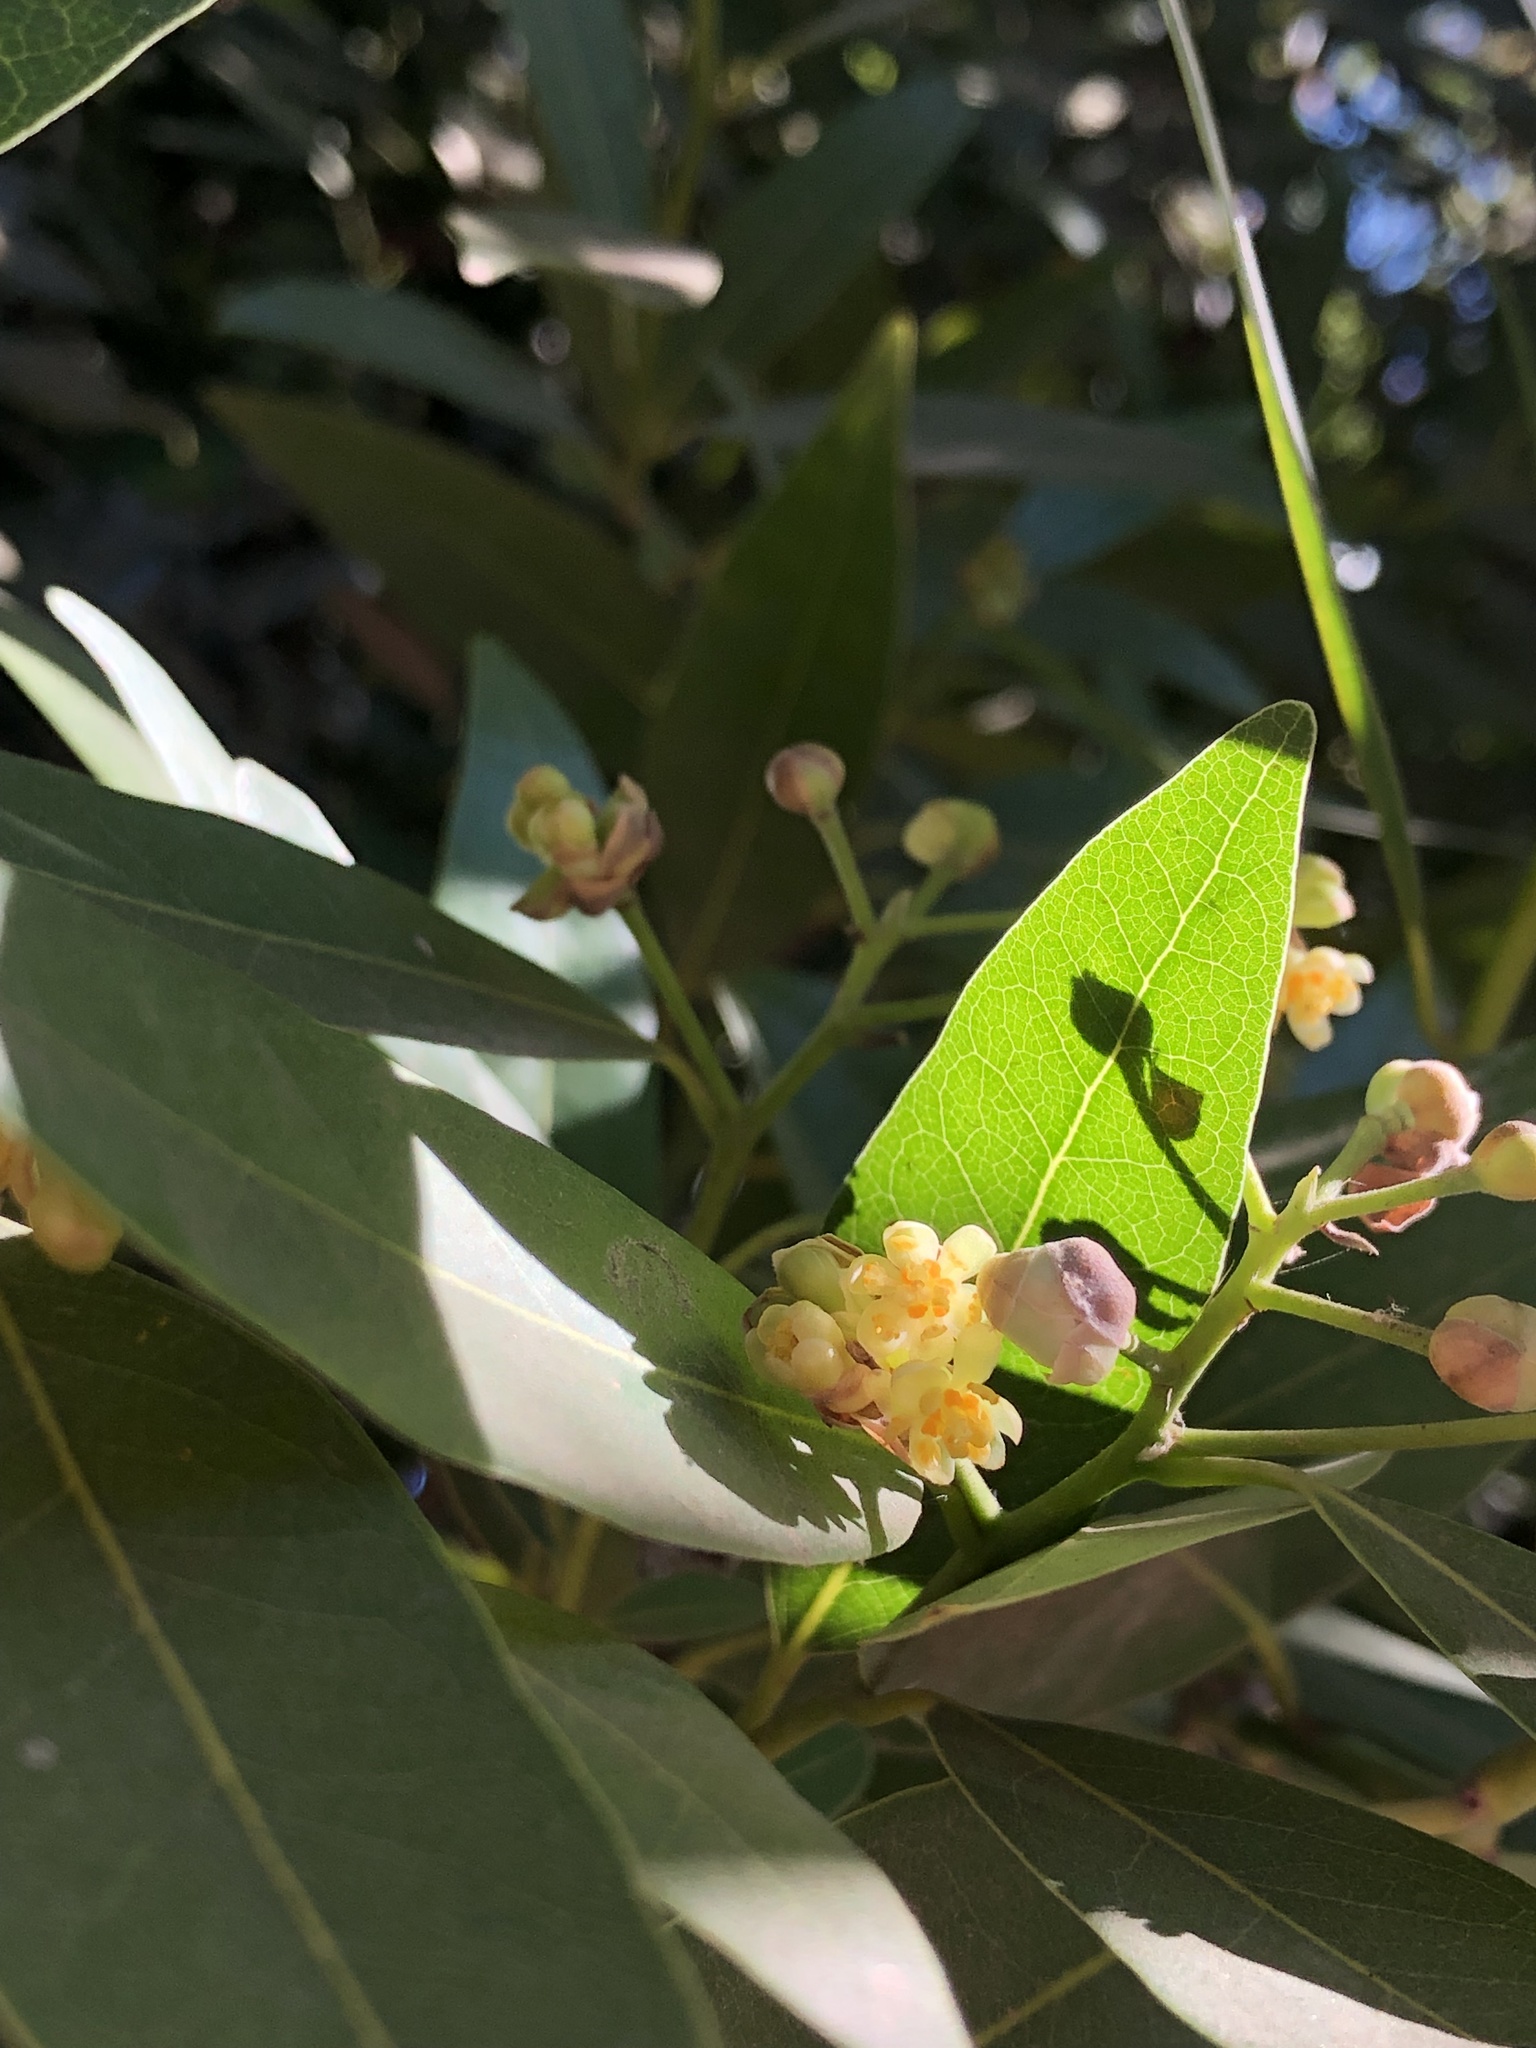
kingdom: Plantae
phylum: Tracheophyta
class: Magnoliopsida
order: Laurales
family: Lauraceae
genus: Umbellularia
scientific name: Umbellularia californica
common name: California bay
